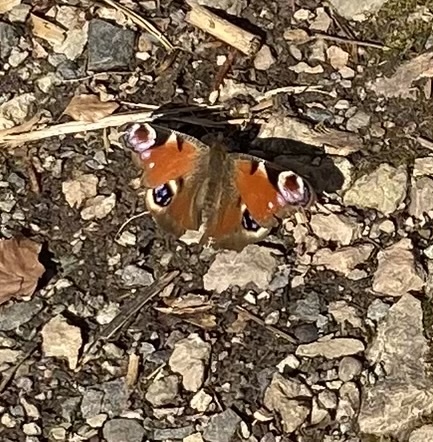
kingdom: Animalia
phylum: Arthropoda
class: Insecta
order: Lepidoptera
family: Nymphalidae
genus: Aglais
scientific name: Aglais io
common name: Peacock
